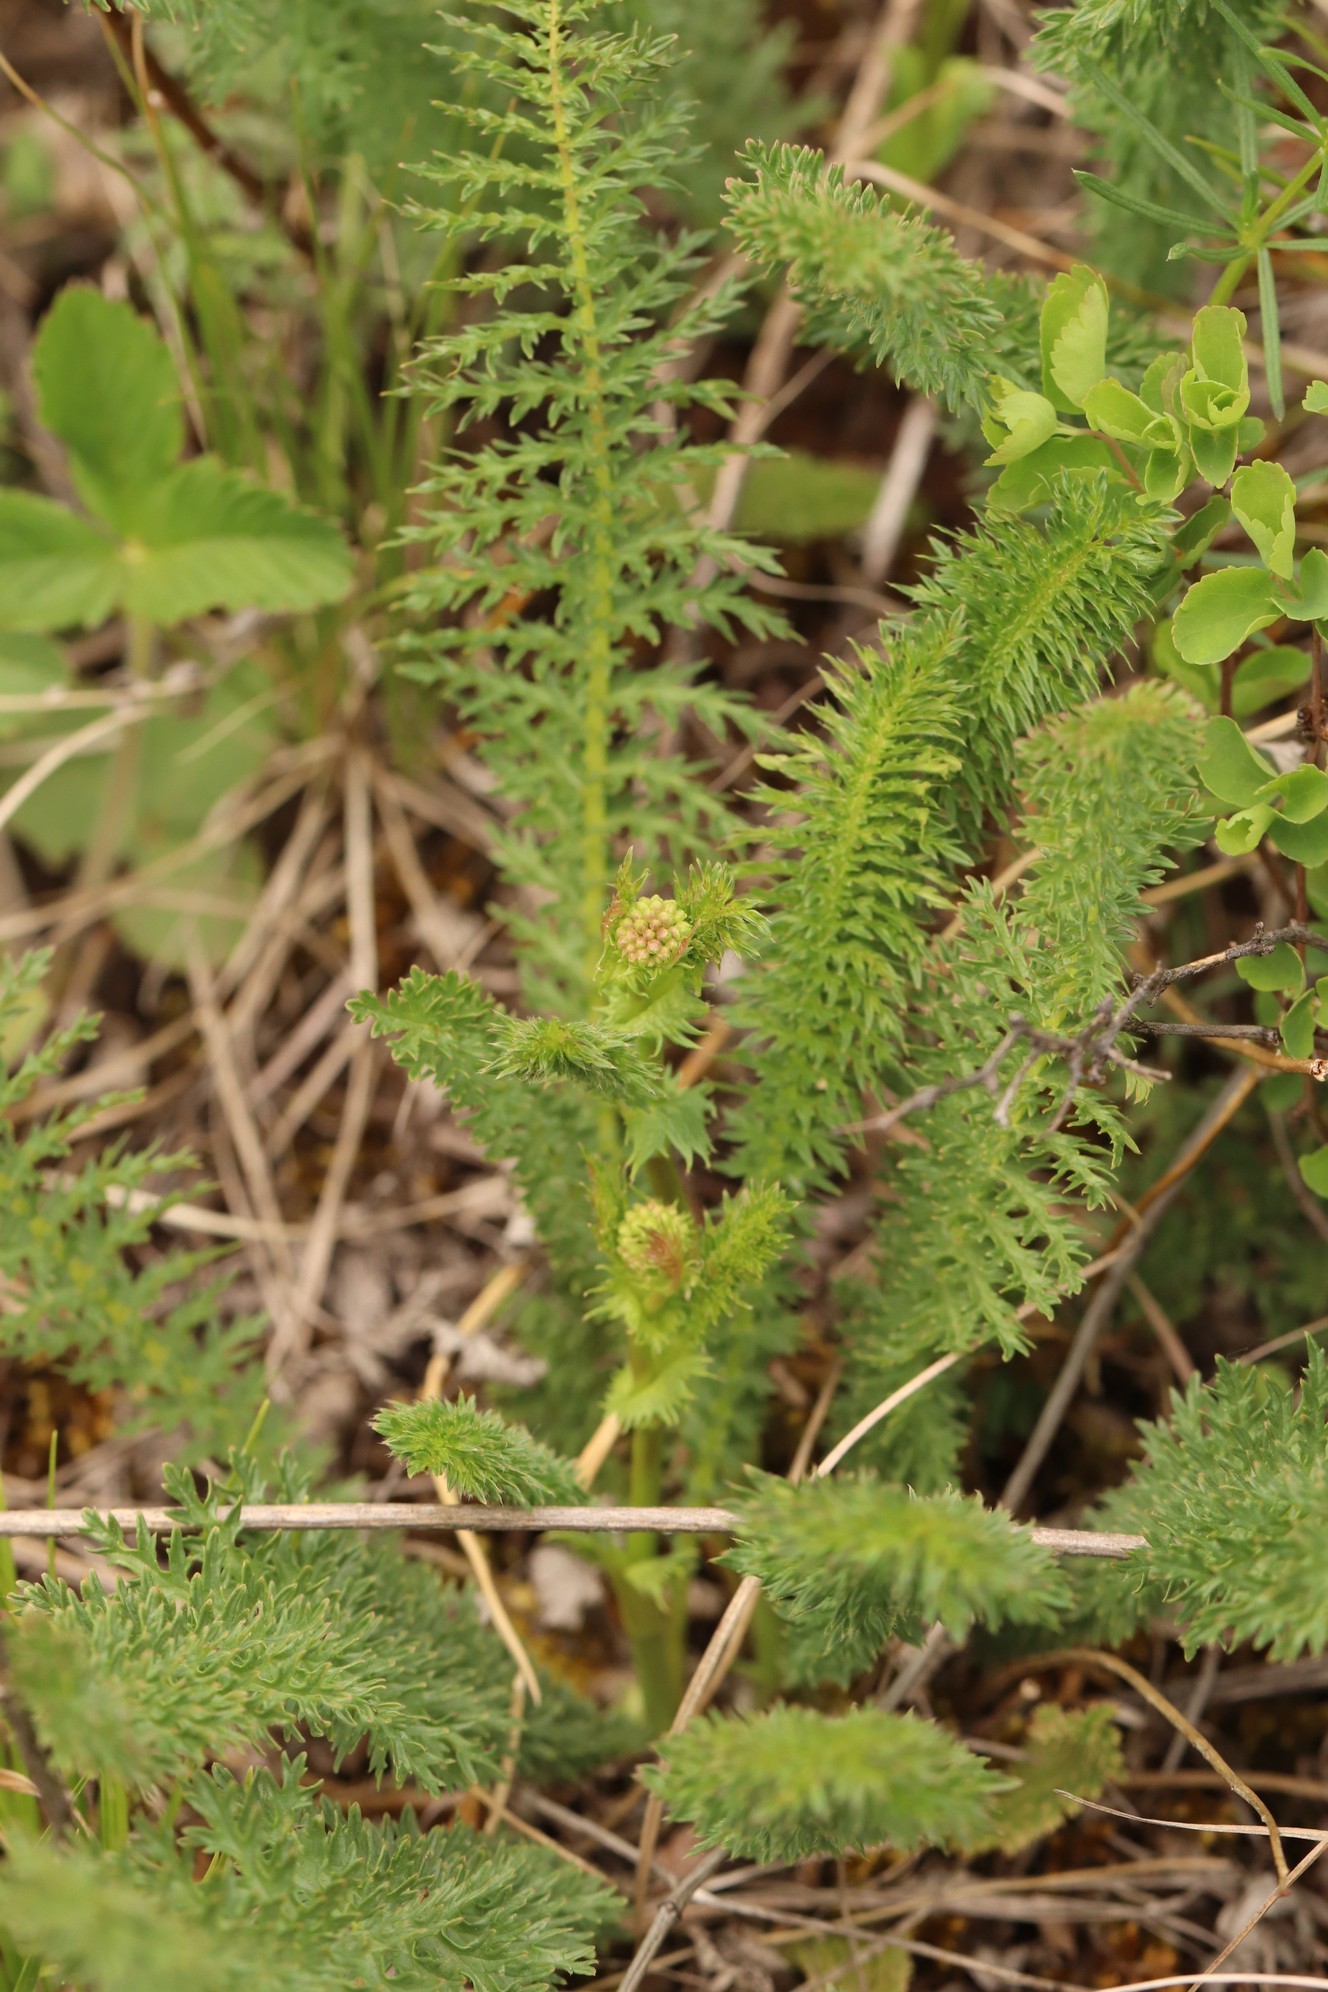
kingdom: Plantae
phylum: Tracheophyta
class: Magnoliopsida
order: Rosales
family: Rosaceae
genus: Filipendula
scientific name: Filipendula vulgaris
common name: Dropwort
